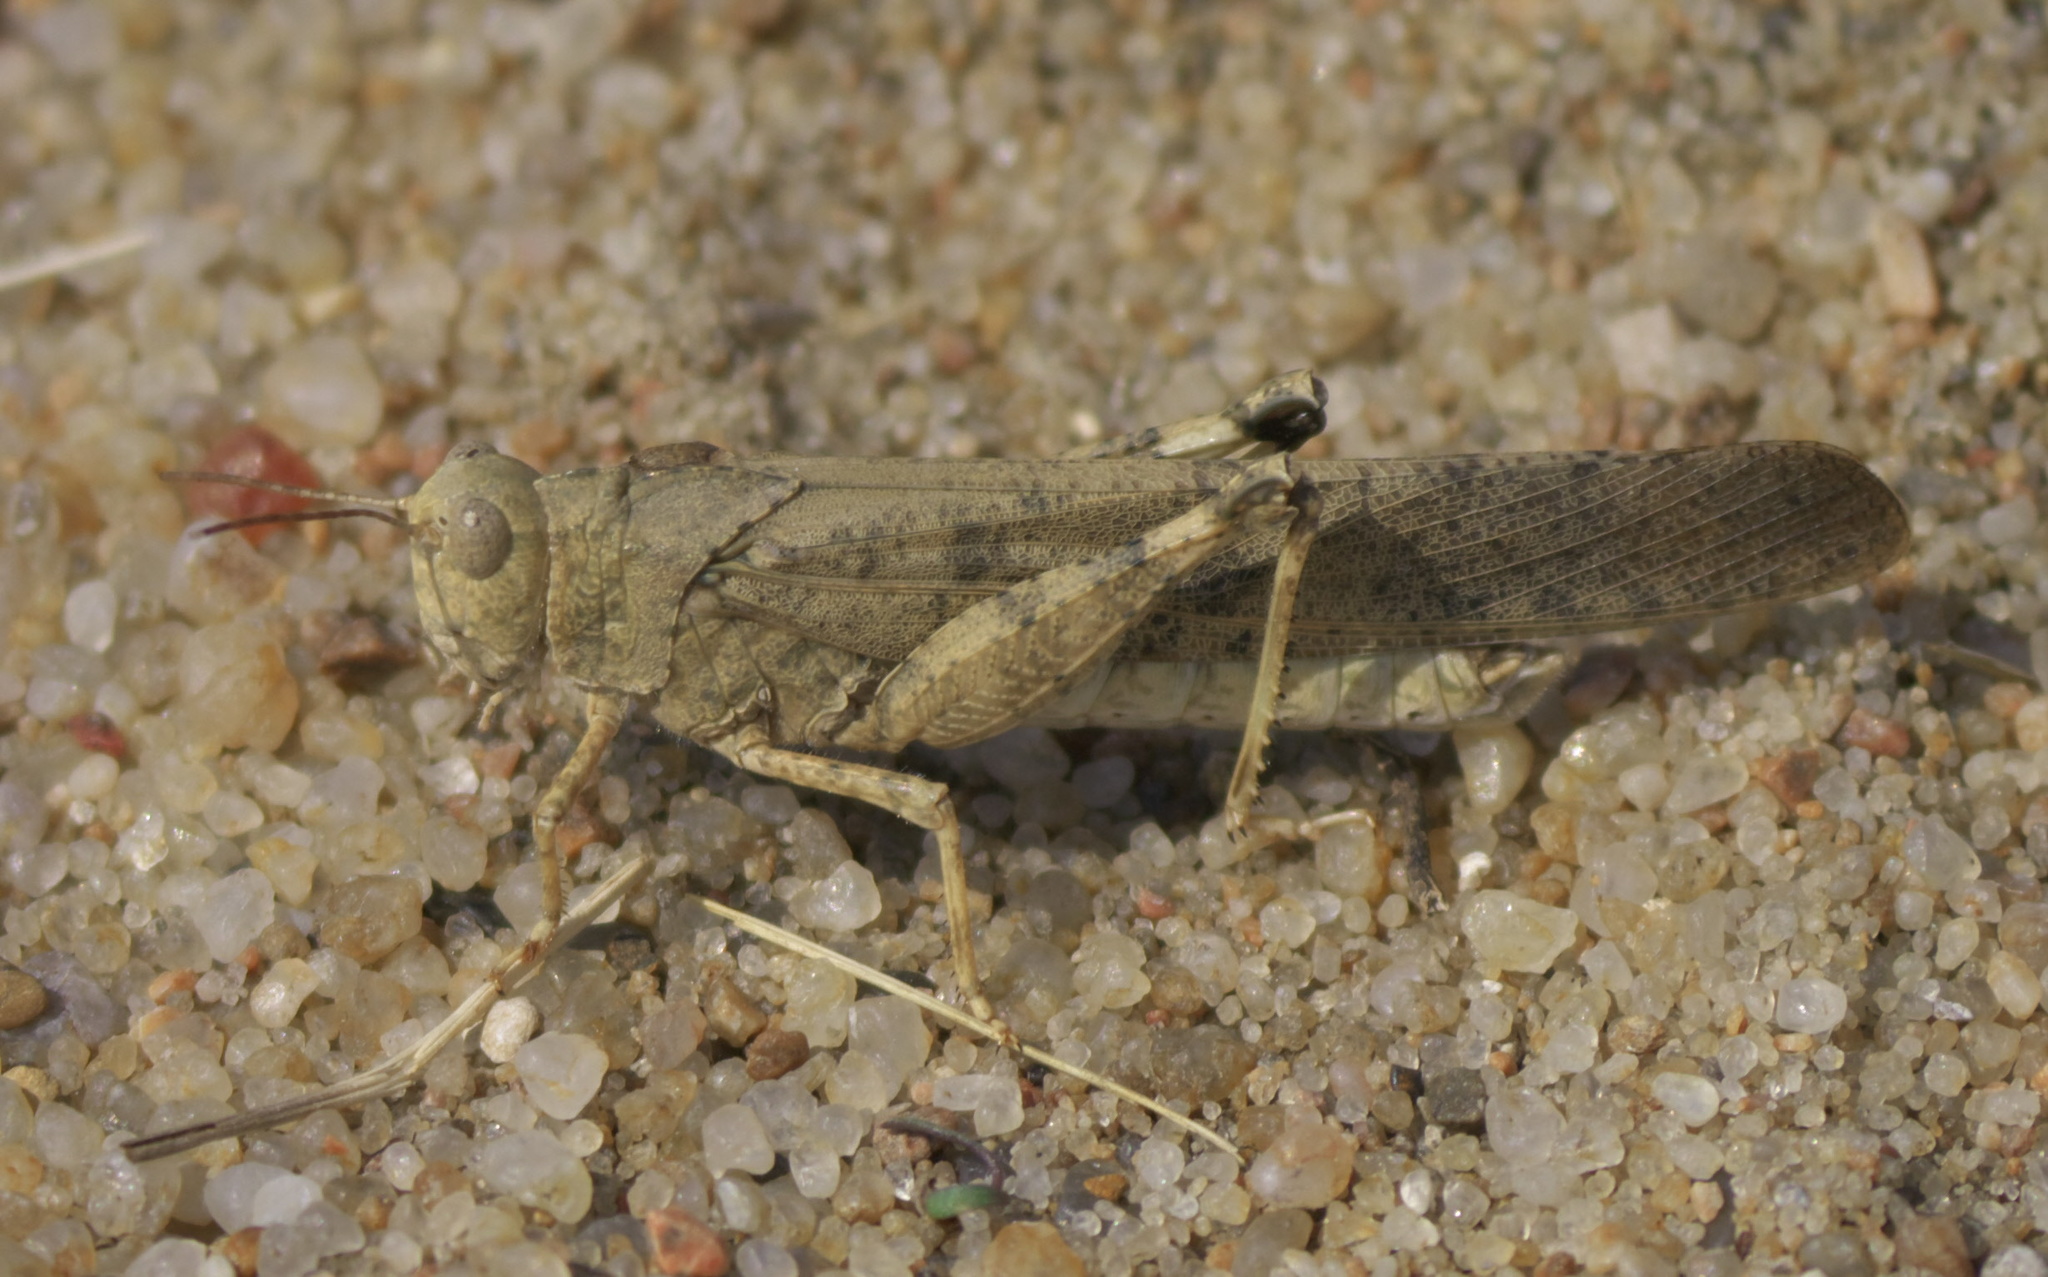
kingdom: Animalia
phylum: Arthropoda
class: Insecta
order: Orthoptera
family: Acrididae
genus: Dissosteira
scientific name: Dissosteira carolina
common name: Carolina grasshopper
